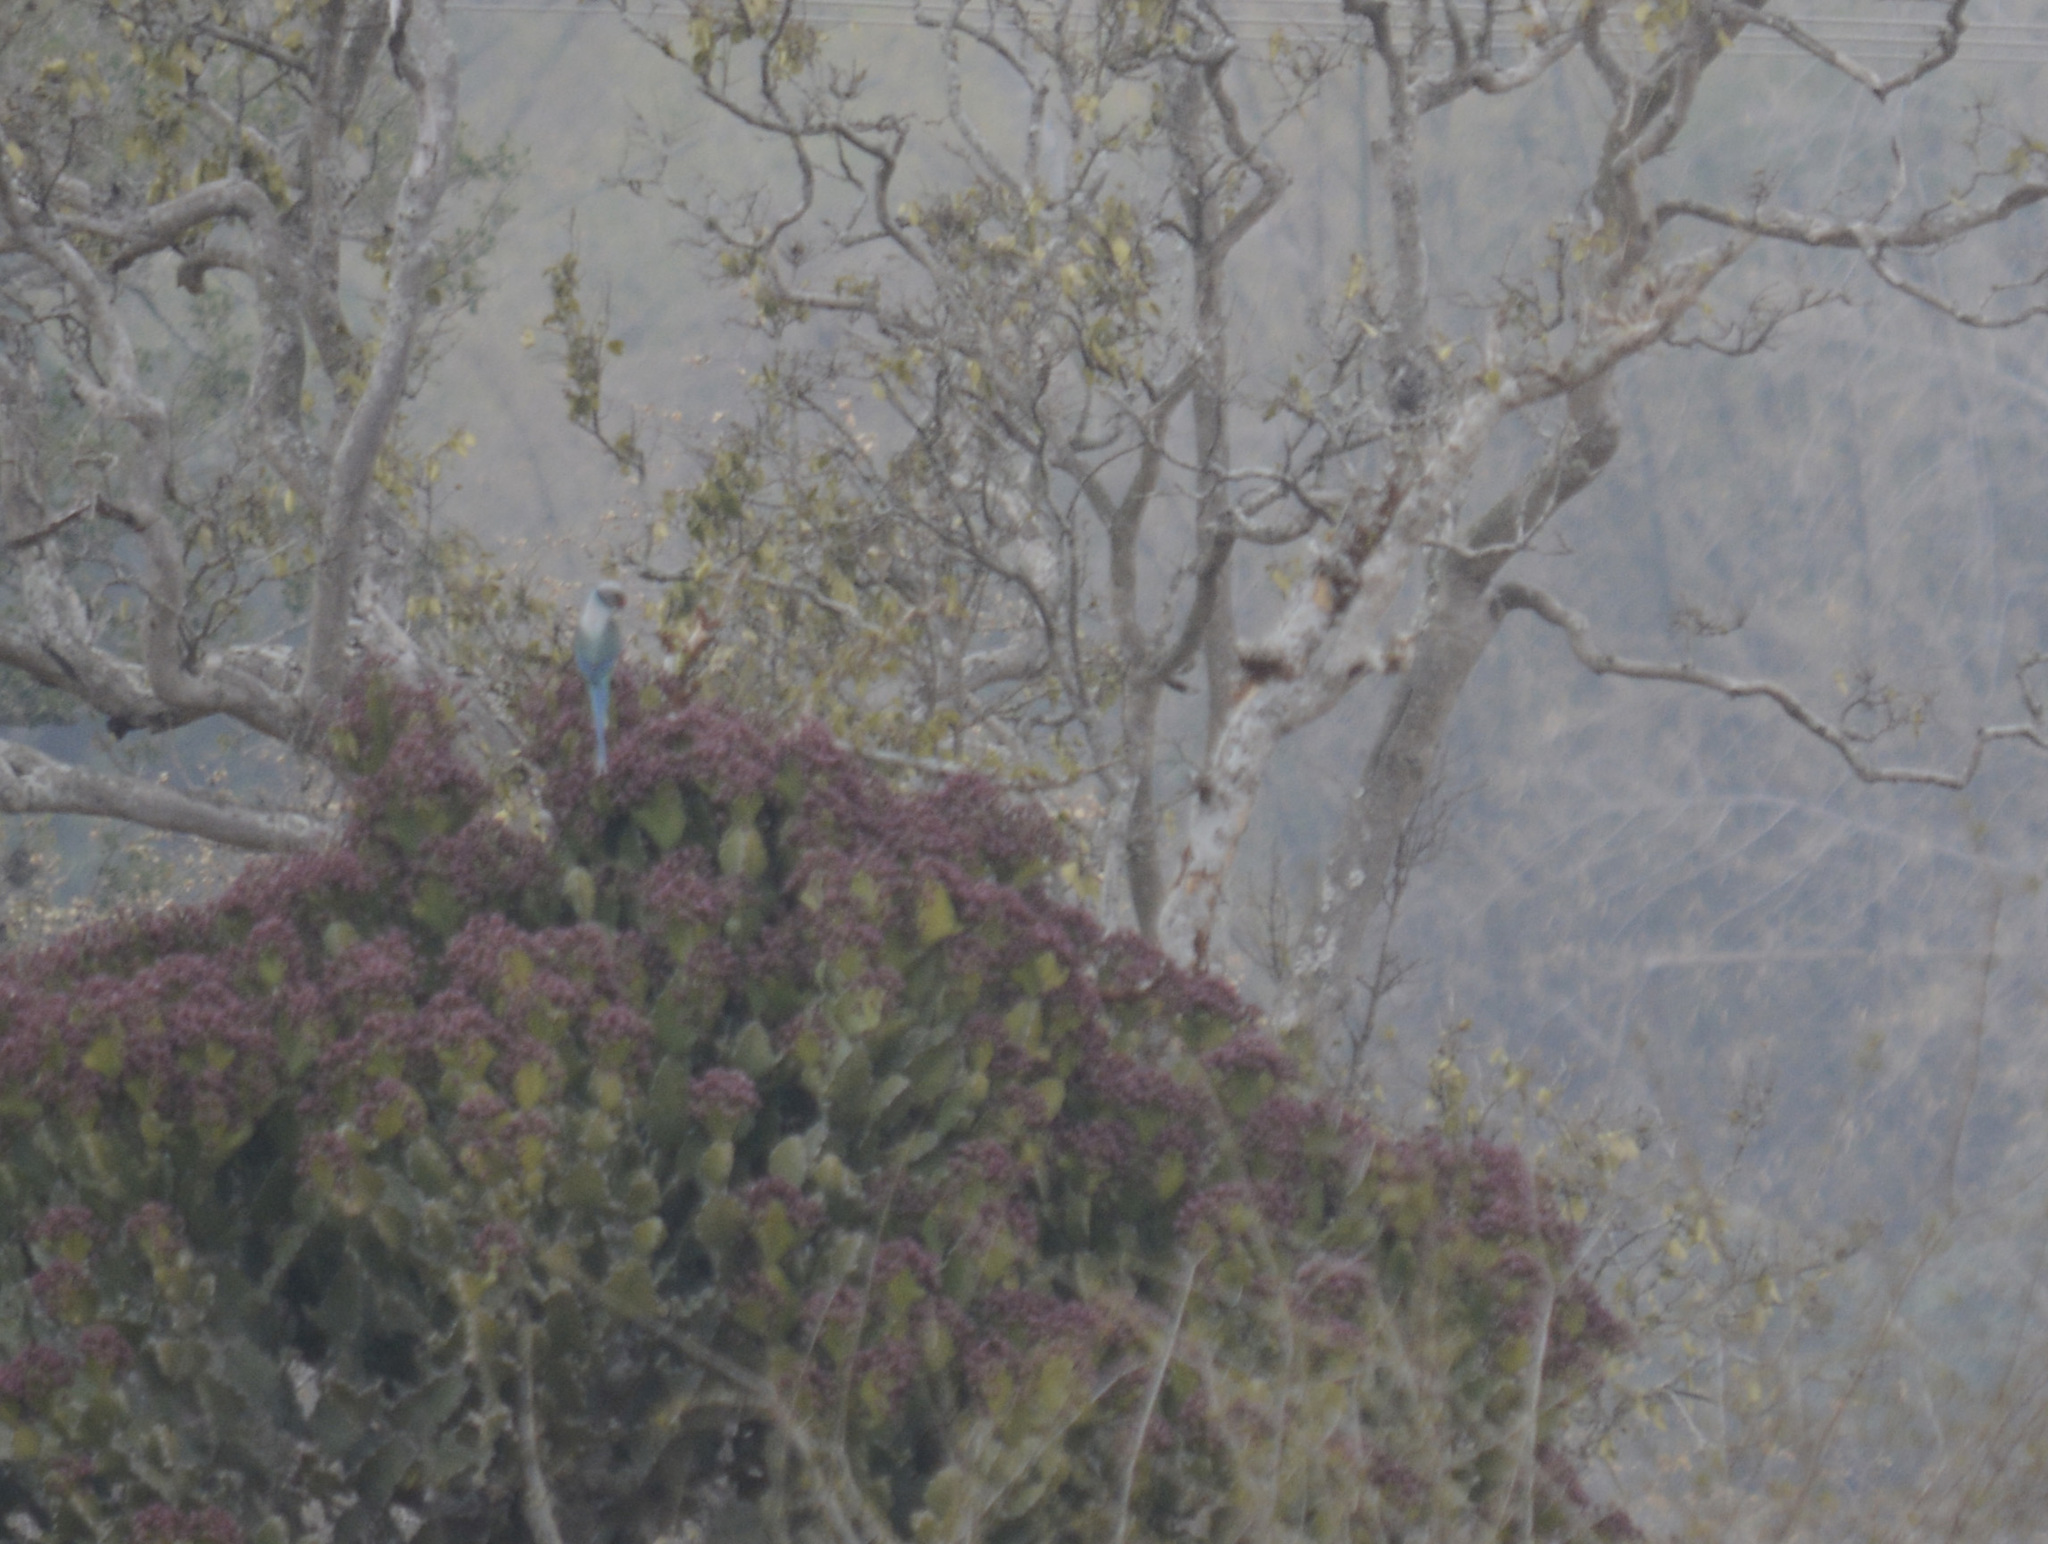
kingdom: Animalia
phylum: Chordata
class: Aves
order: Psittaciformes
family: Psittacidae
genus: Psittacula
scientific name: Psittacula columboides
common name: Blue-winged parakeet
